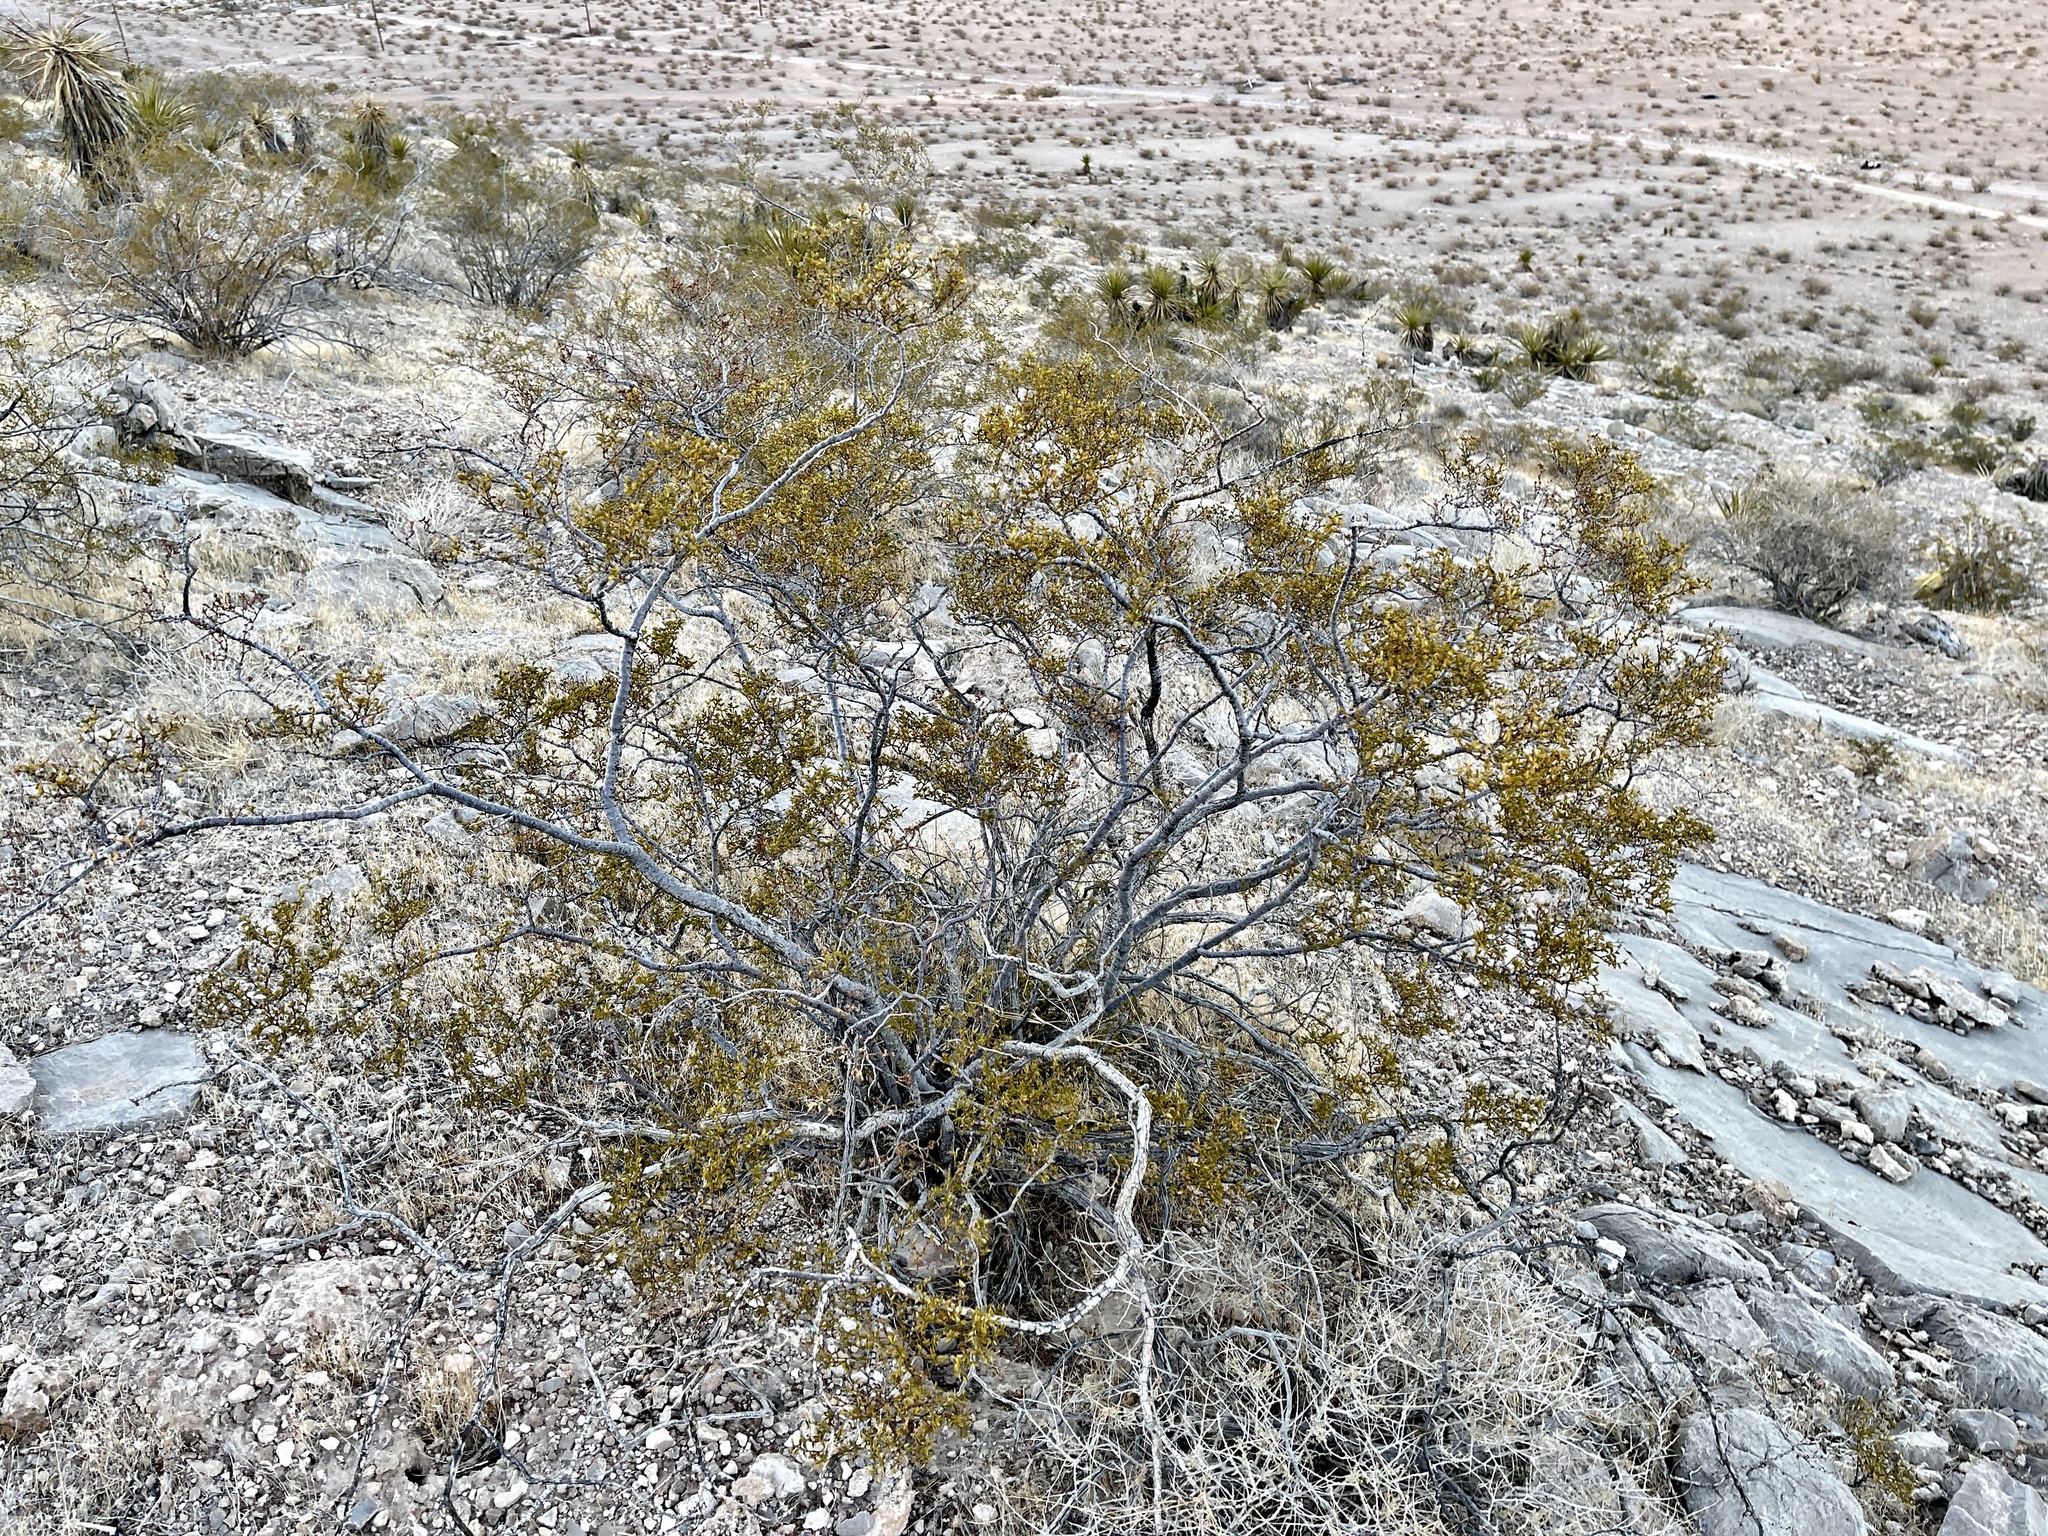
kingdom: Plantae
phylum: Tracheophyta
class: Magnoliopsida
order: Zygophyllales
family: Zygophyllaceae
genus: Larrea
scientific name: Larrea tridentata
